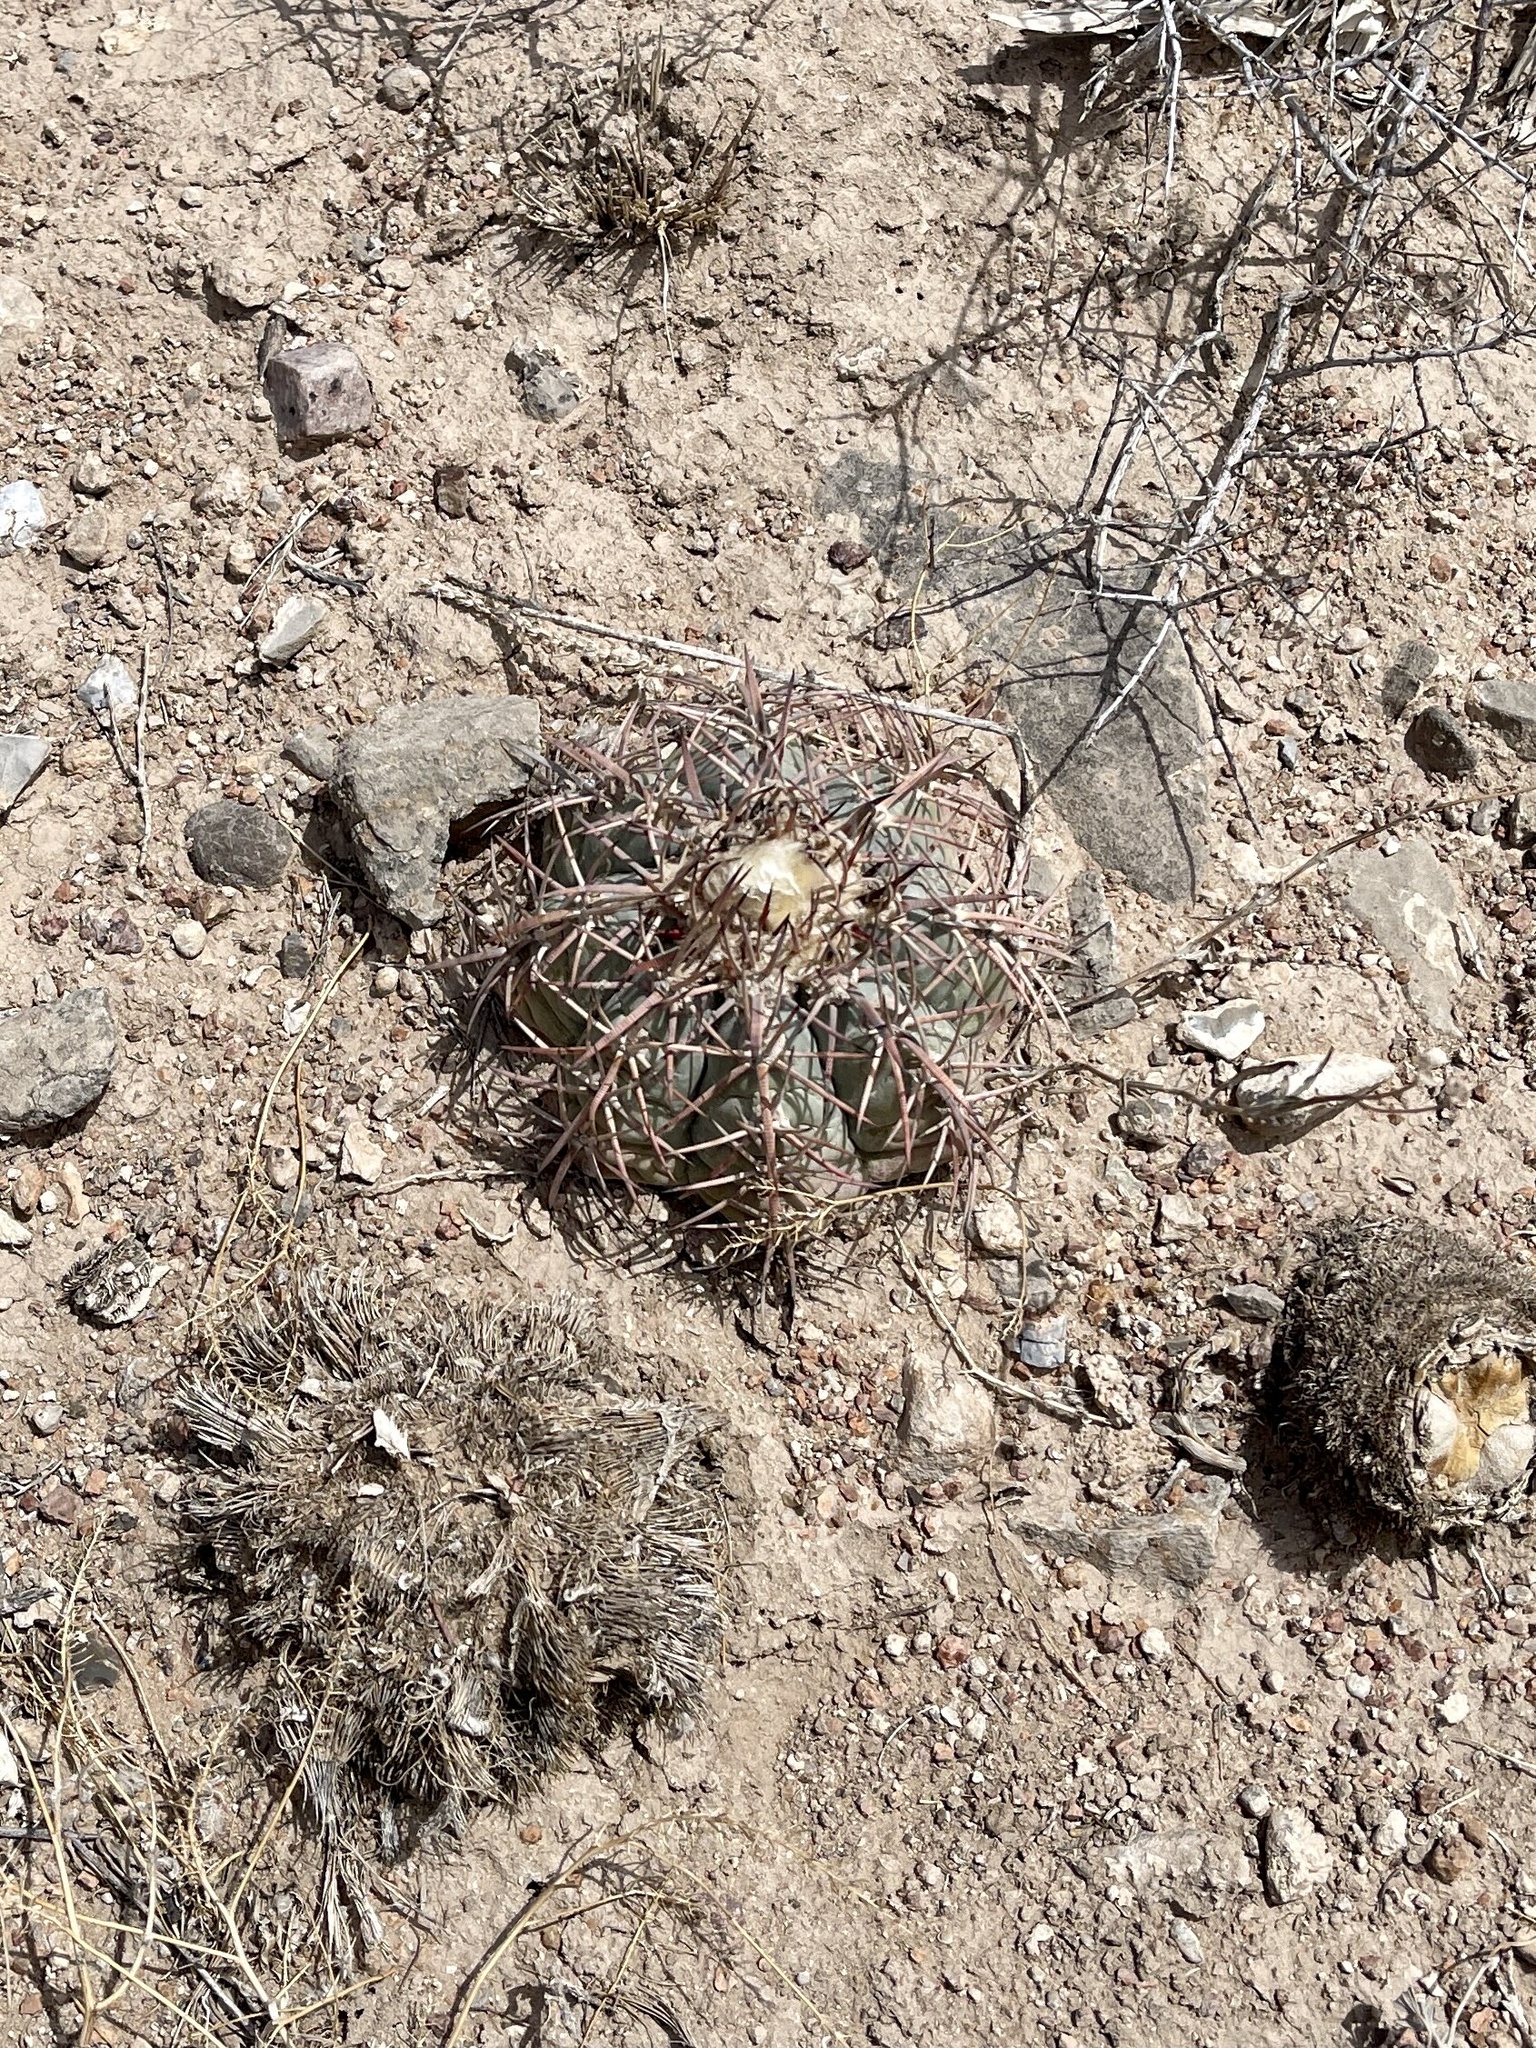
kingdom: Plantae
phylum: Tracheophyta
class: Magnoliopsida
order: Caryophyllales
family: Cactaceae
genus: Echinocactus
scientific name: Echinocactus horizonthalonius
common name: Devilshead
